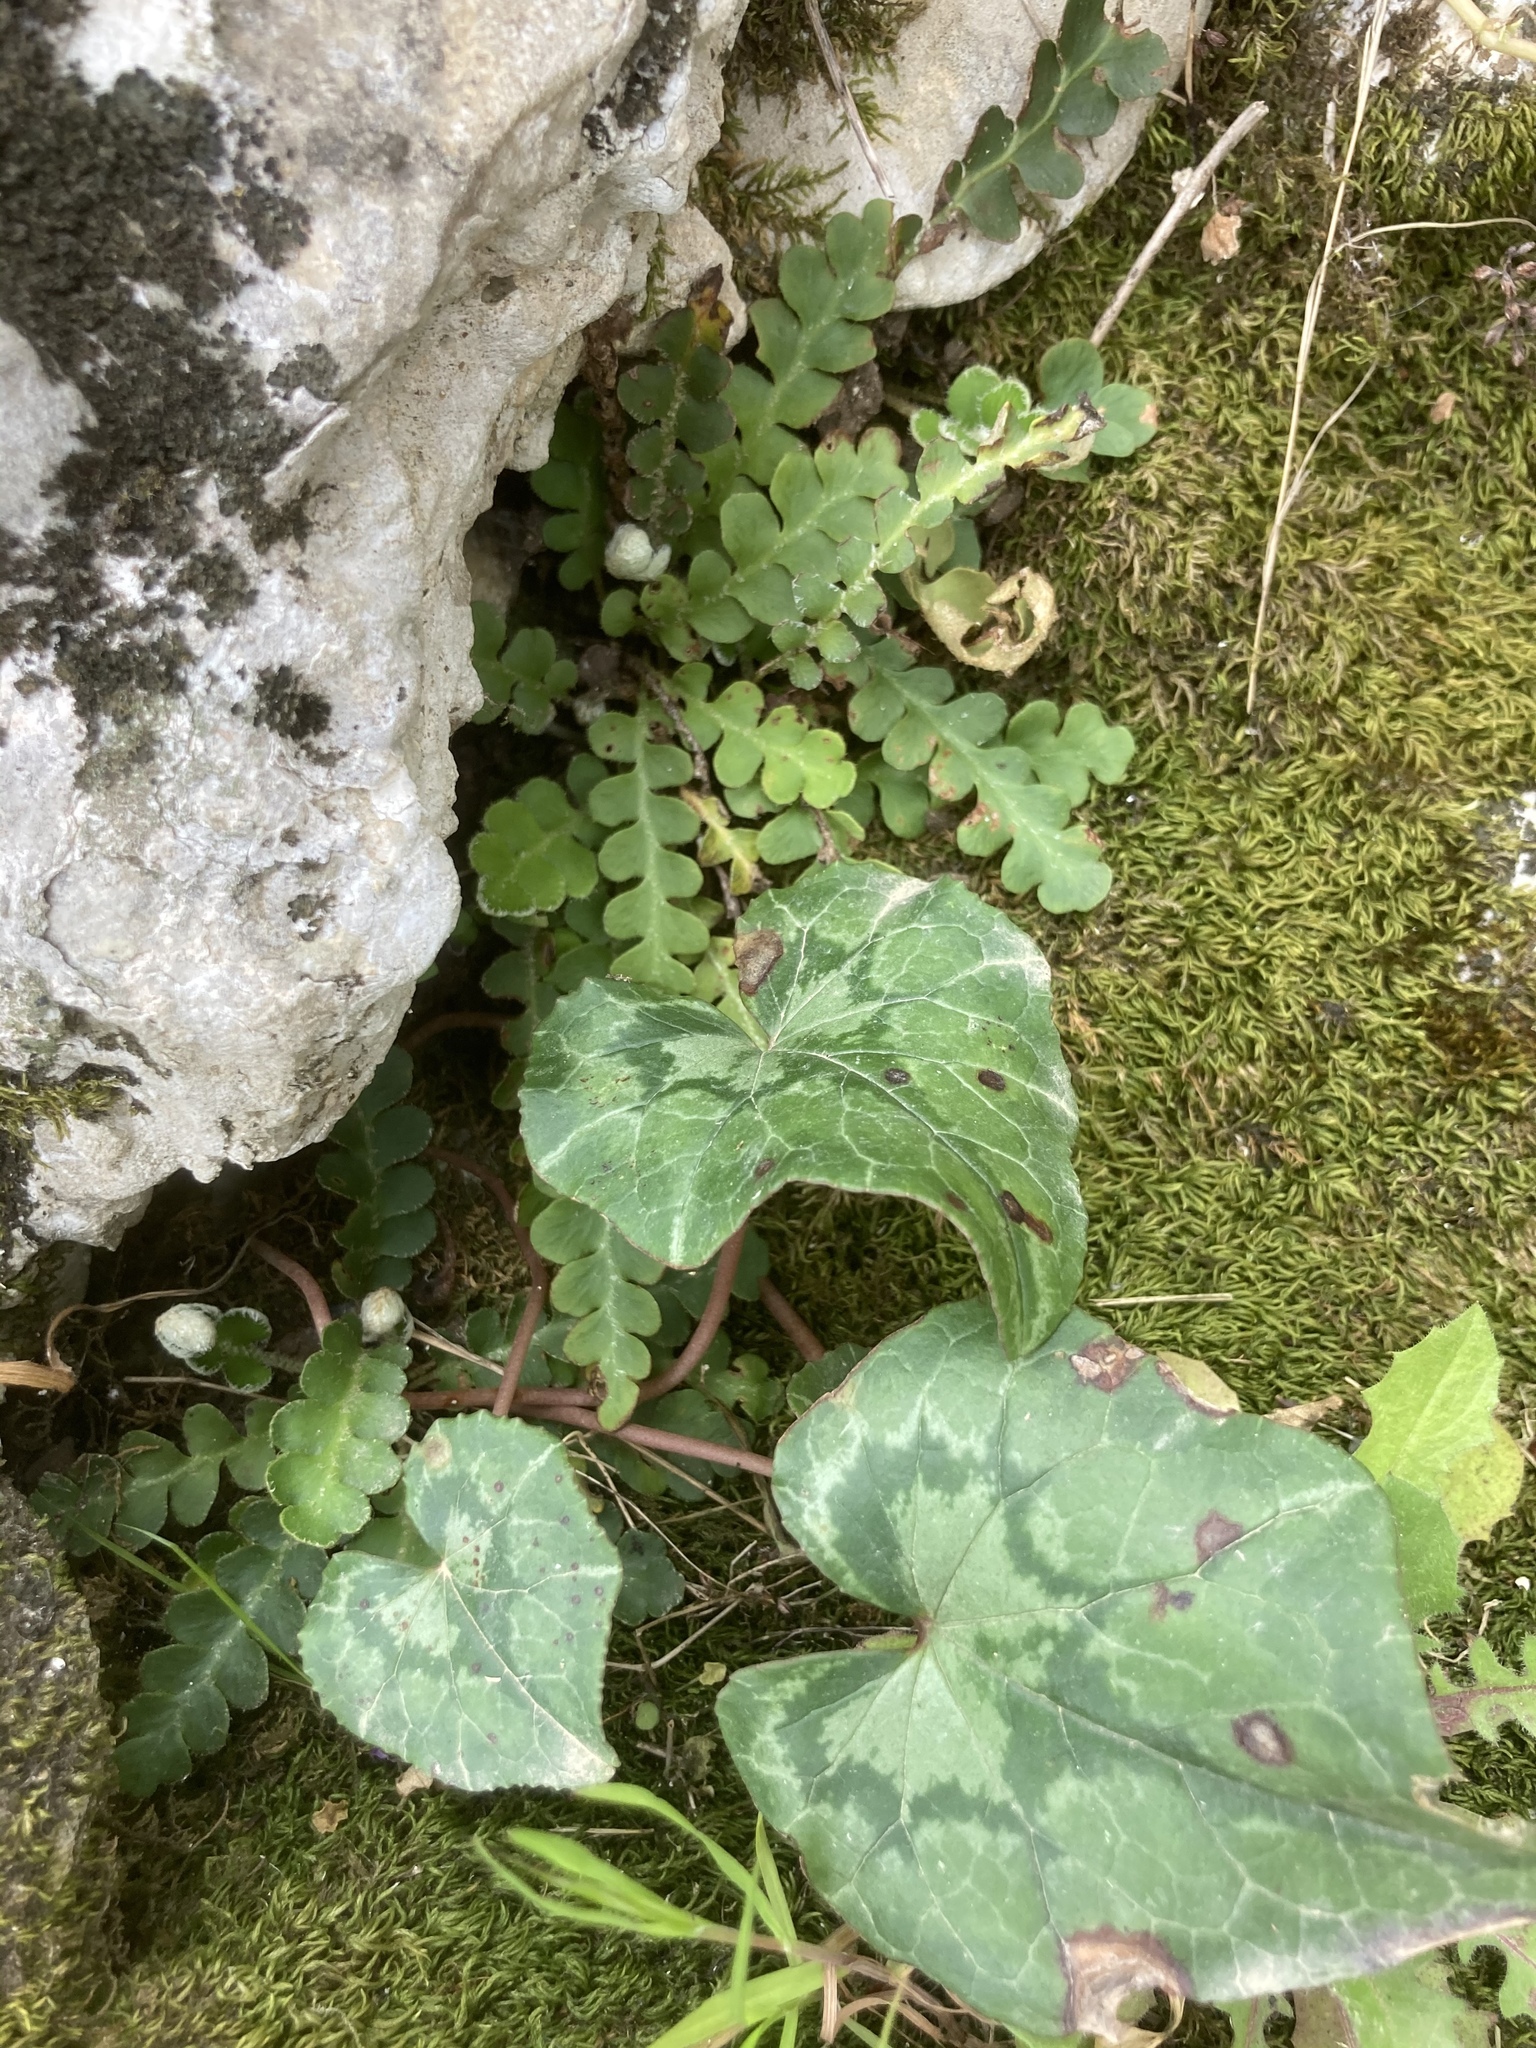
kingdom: Plantae
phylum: Tracheophyta
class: Polypodiopsida
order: Polypodiales
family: Aspleniaceae
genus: Asplenium
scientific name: Asplenium ceterach
